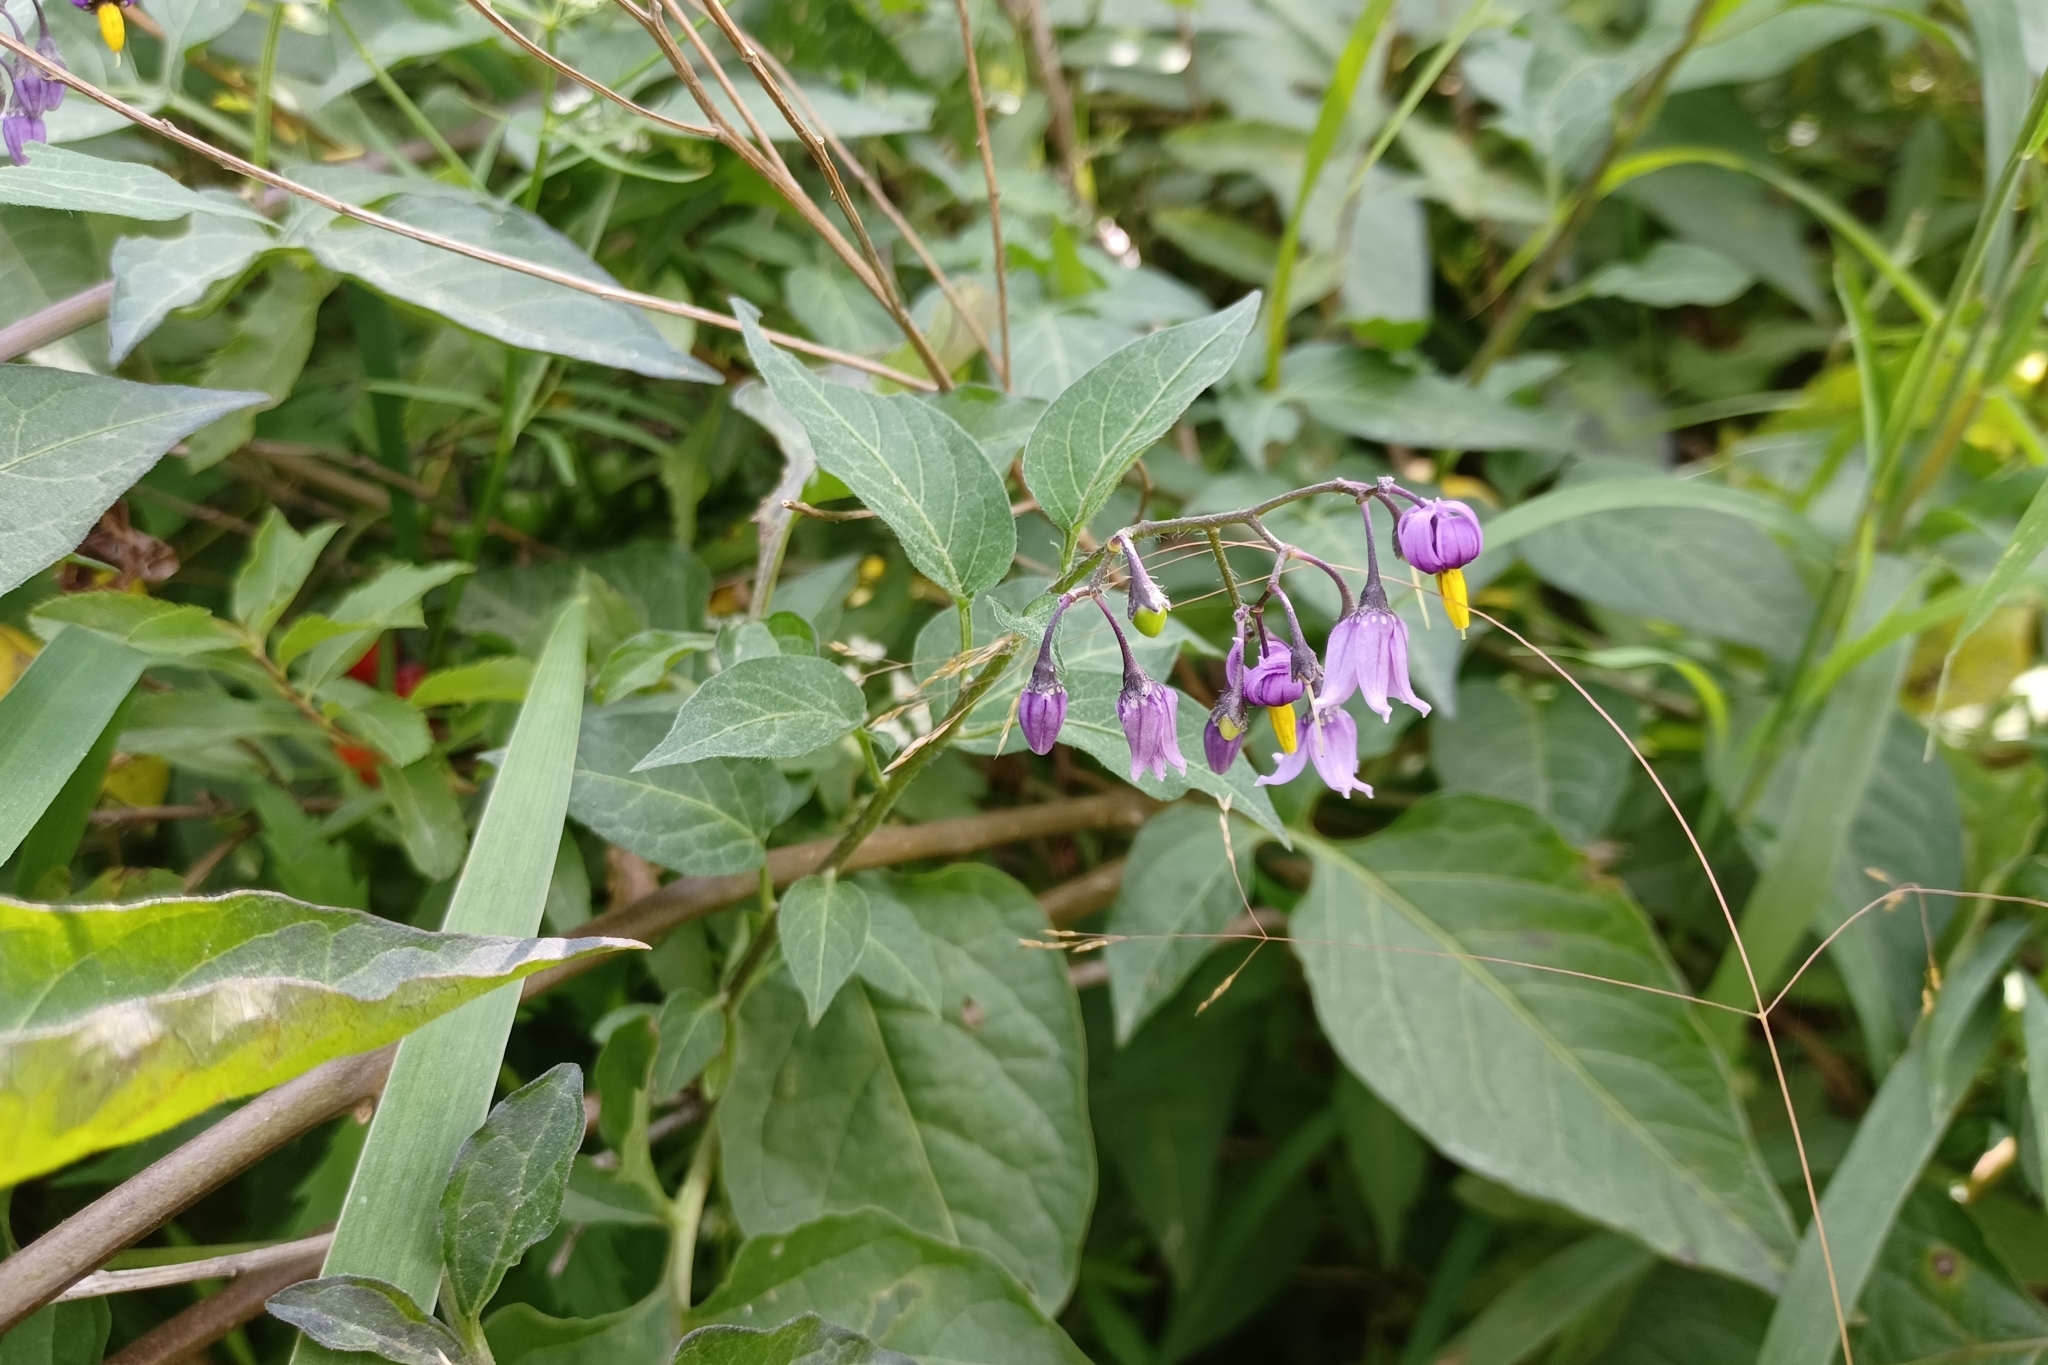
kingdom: Plantae
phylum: Tracheophyta
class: Magnoliopsida
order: Solanales
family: Solanaceae
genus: Solanum
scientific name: Solanum dulcamara
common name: Climbing nightshade
